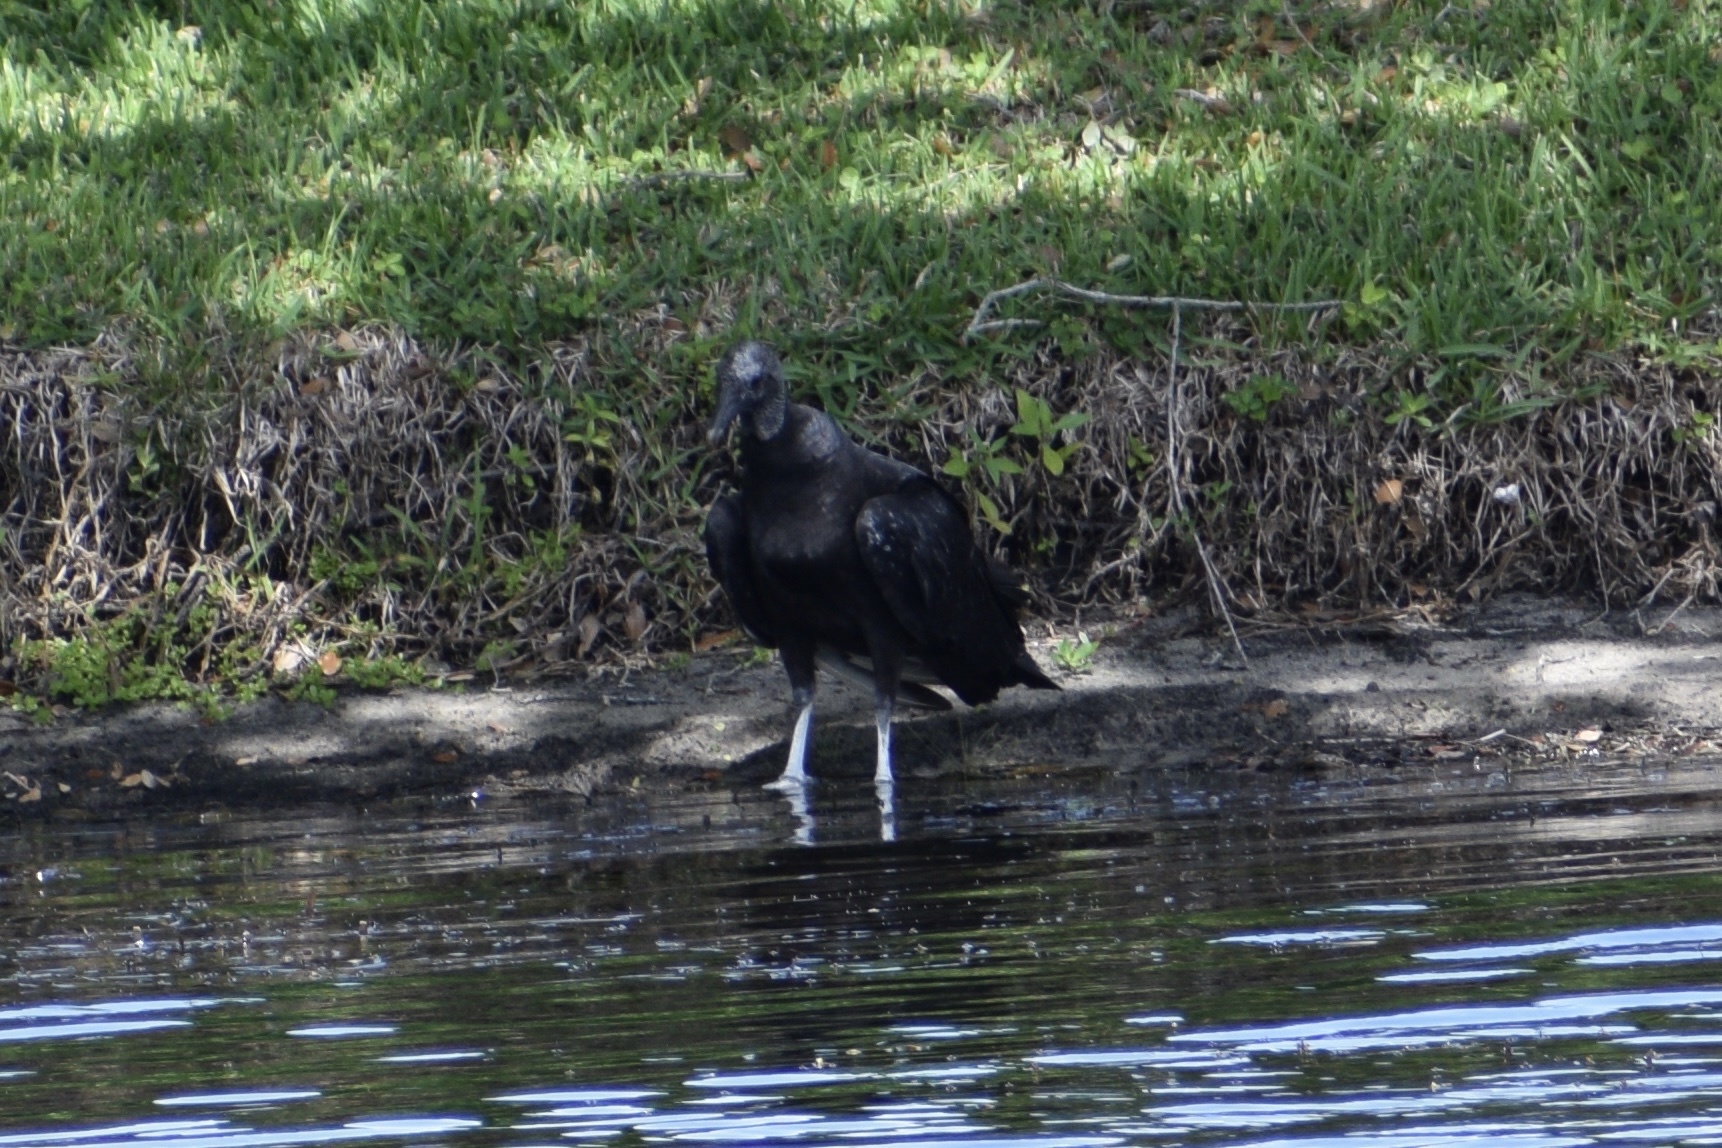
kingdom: Animalia
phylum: Chordata
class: Aves
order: Accipitriformes
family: Cathartidae
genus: Coragyps
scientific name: Coragyps atratus
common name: Black vulture
